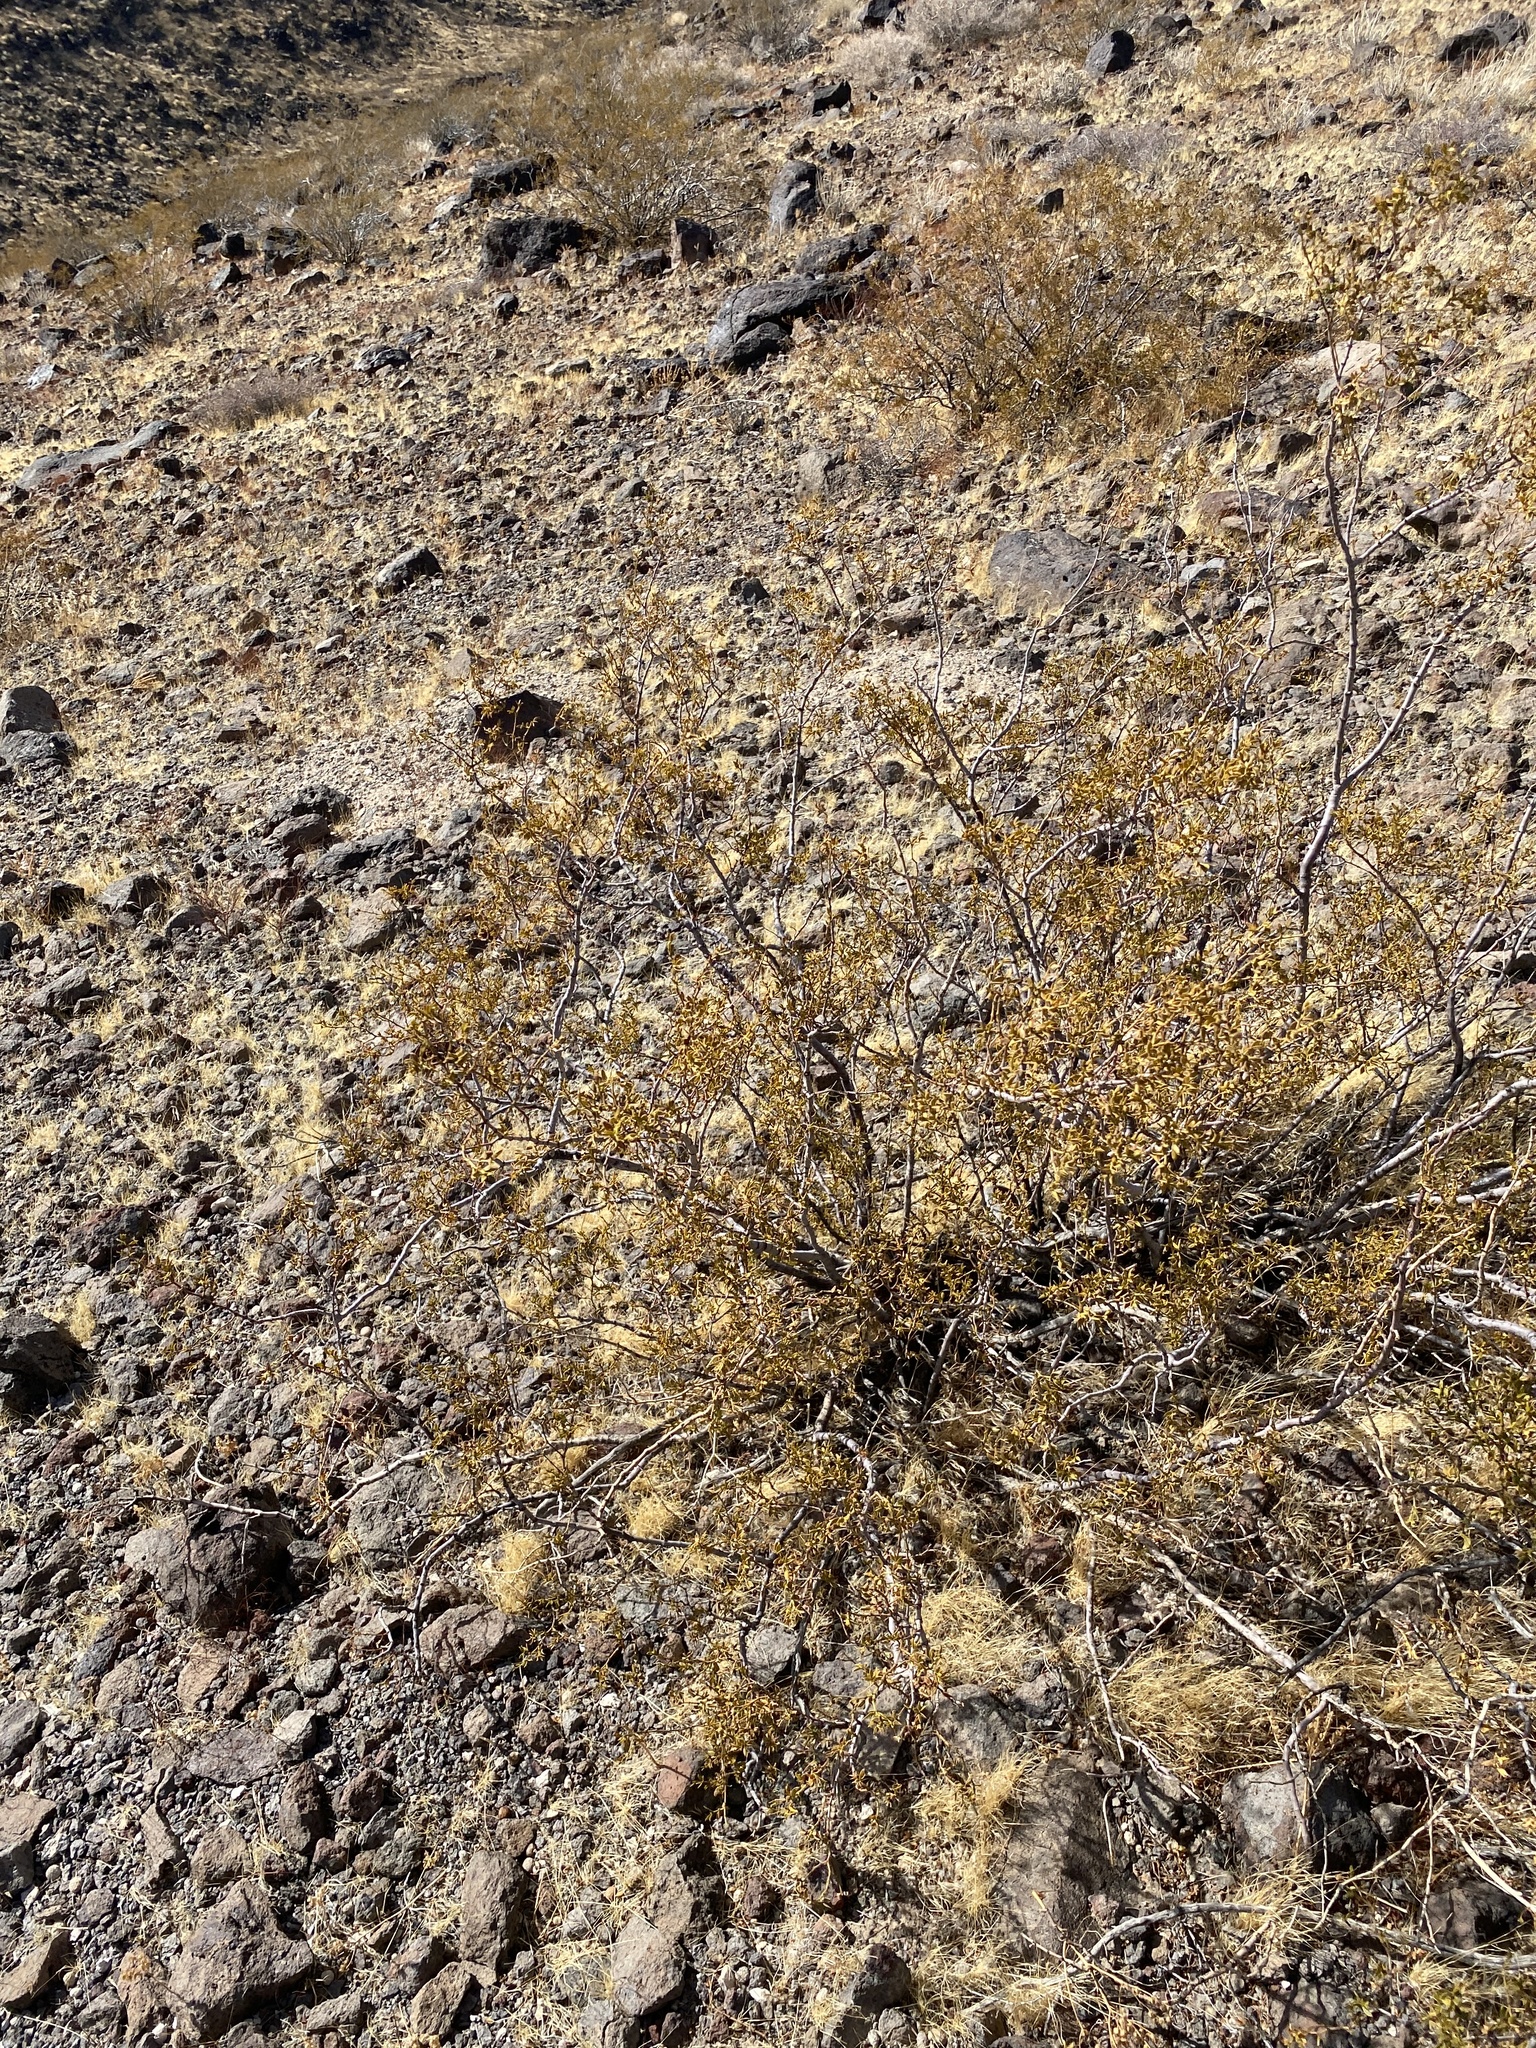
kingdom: Plantae
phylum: Tracheophyta
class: Magnoliopsida
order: Zygophyllales
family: Zygophyllaceae
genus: Larrea
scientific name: Larrea tridentata
